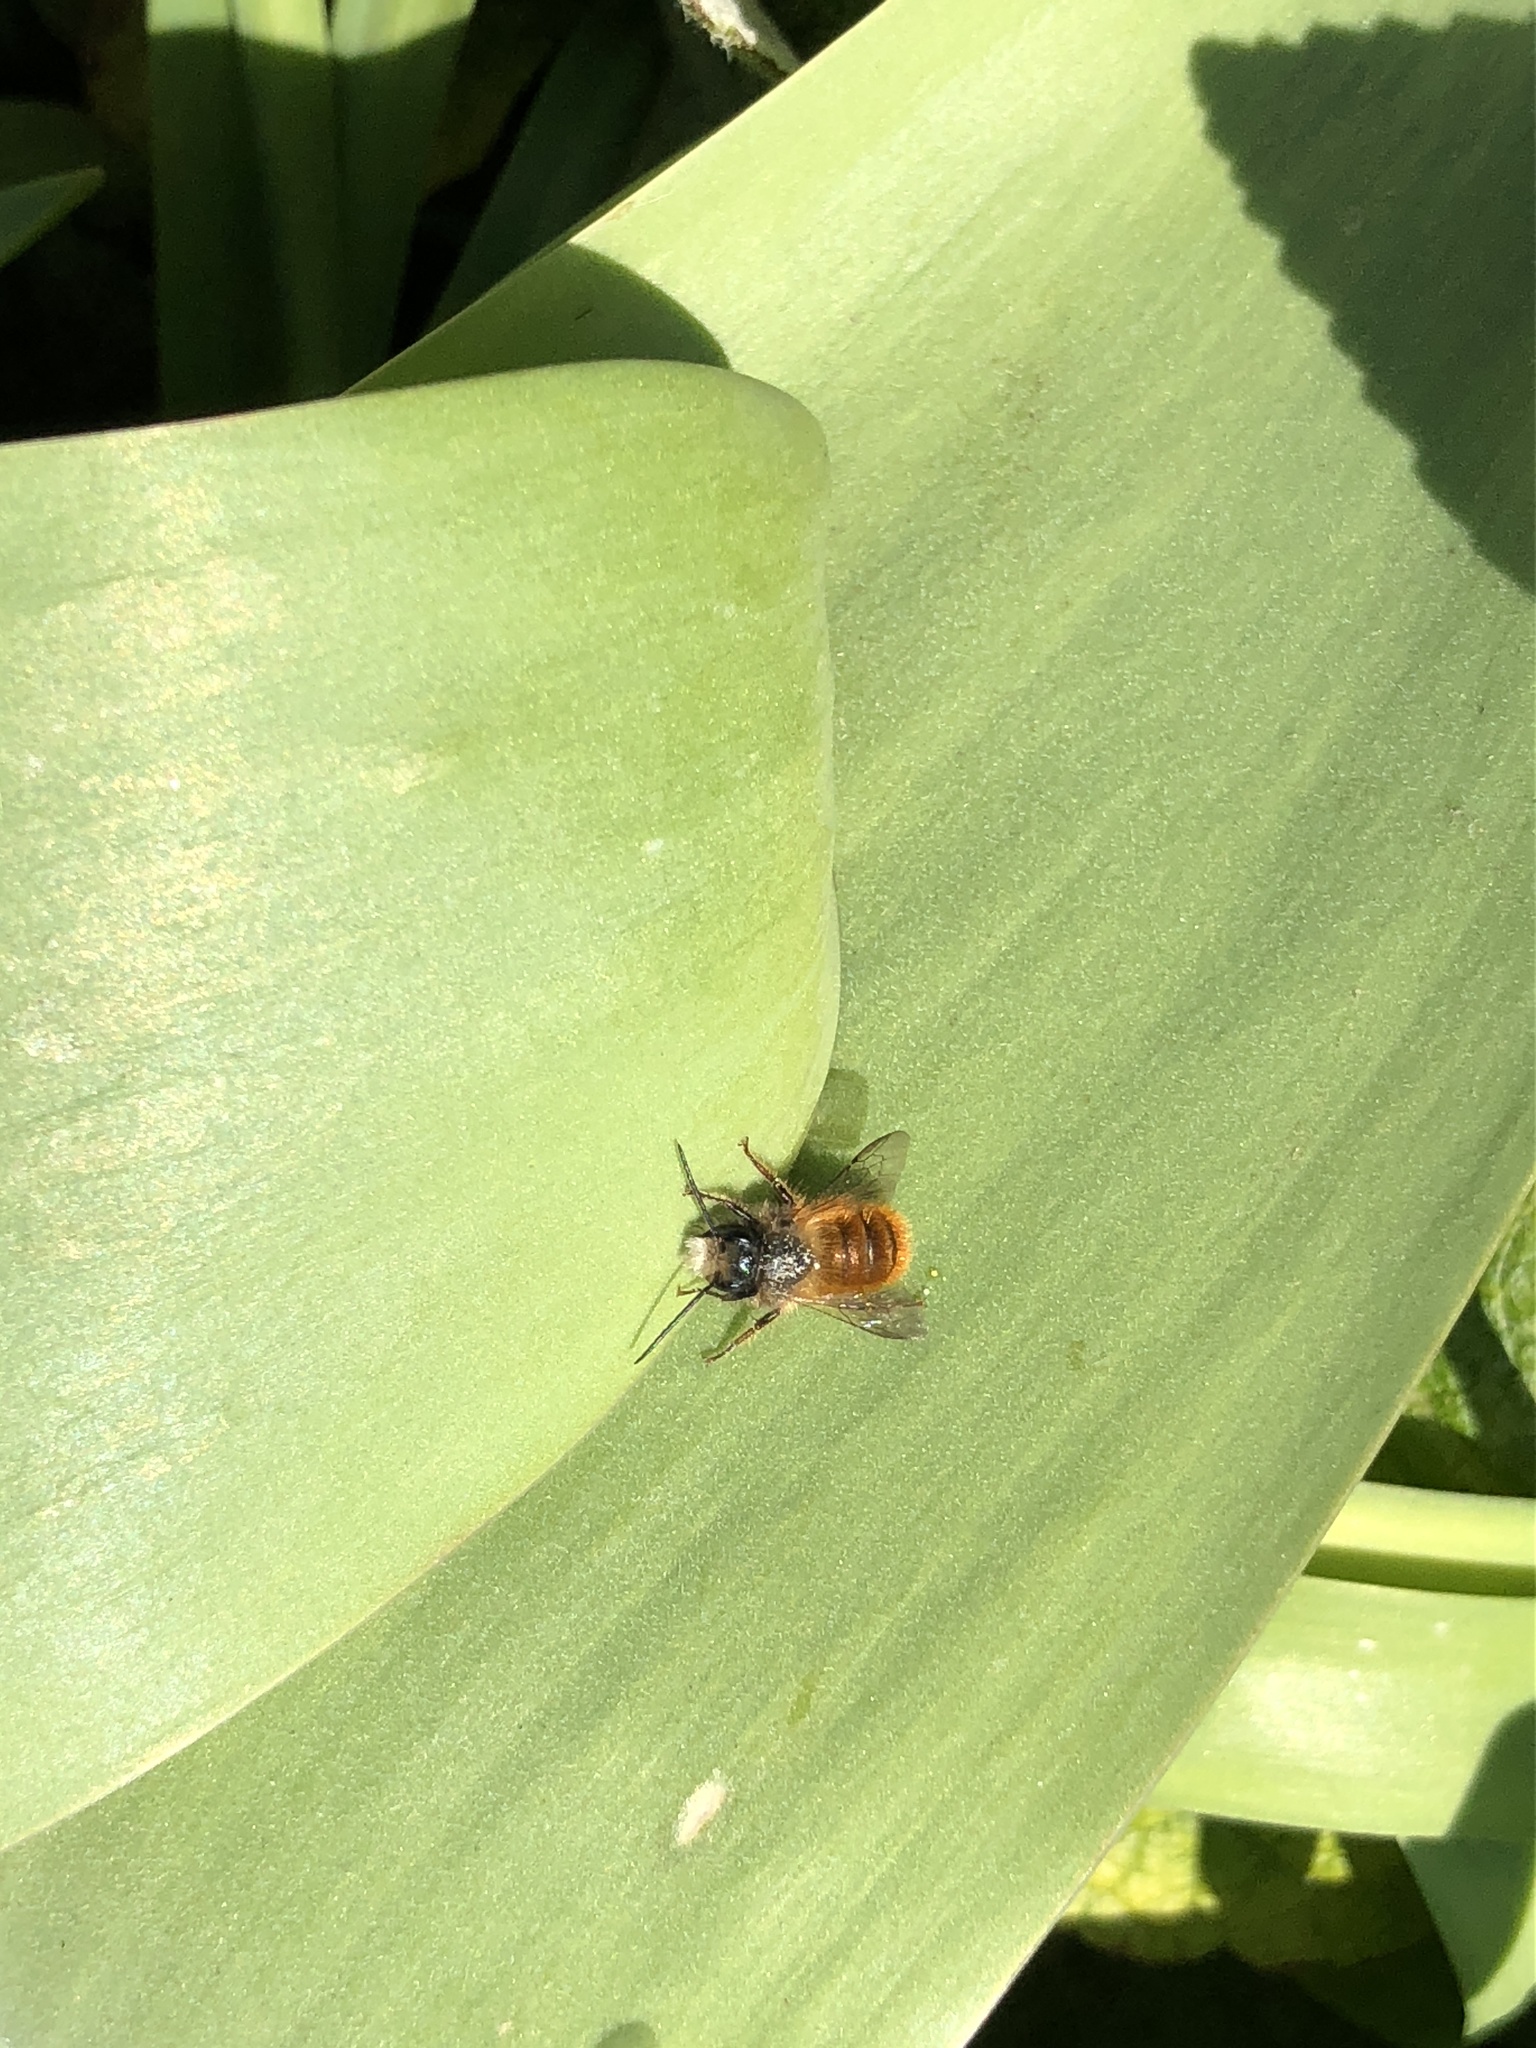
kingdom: Animalia
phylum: Arthropoda
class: Insecta
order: Hymenoptera
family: Megachilidae
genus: Osmia
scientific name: Osmia bicornis
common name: Red mason bee
